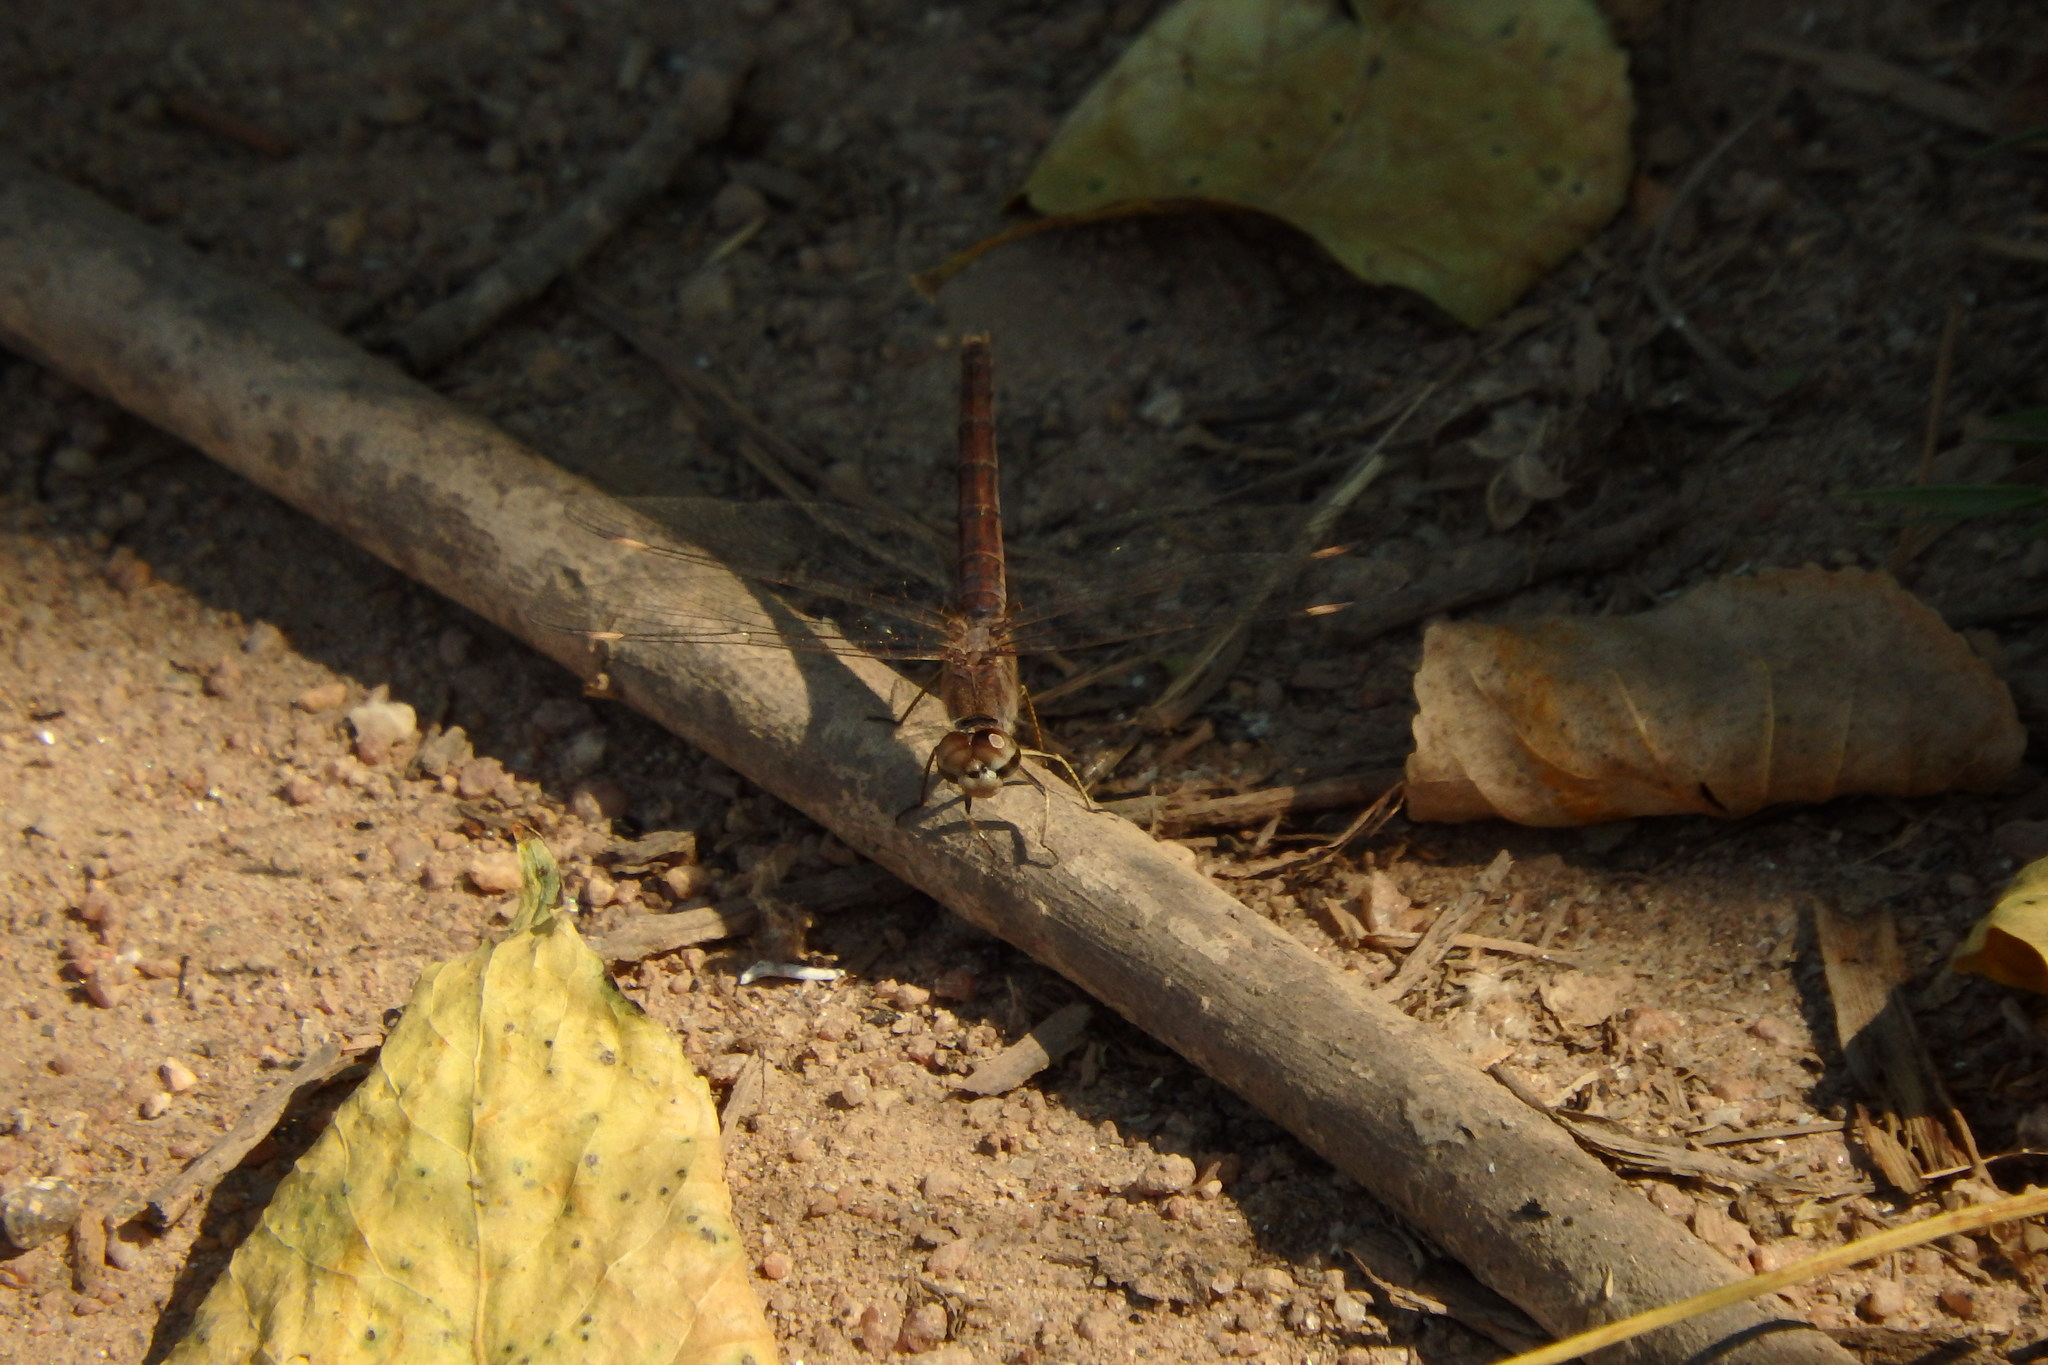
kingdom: Animalia
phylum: Arthropoda
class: Insecta
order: Odonata
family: Libellulidae
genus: Brachythemis
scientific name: Brachythemis impartita
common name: Banded groundling
